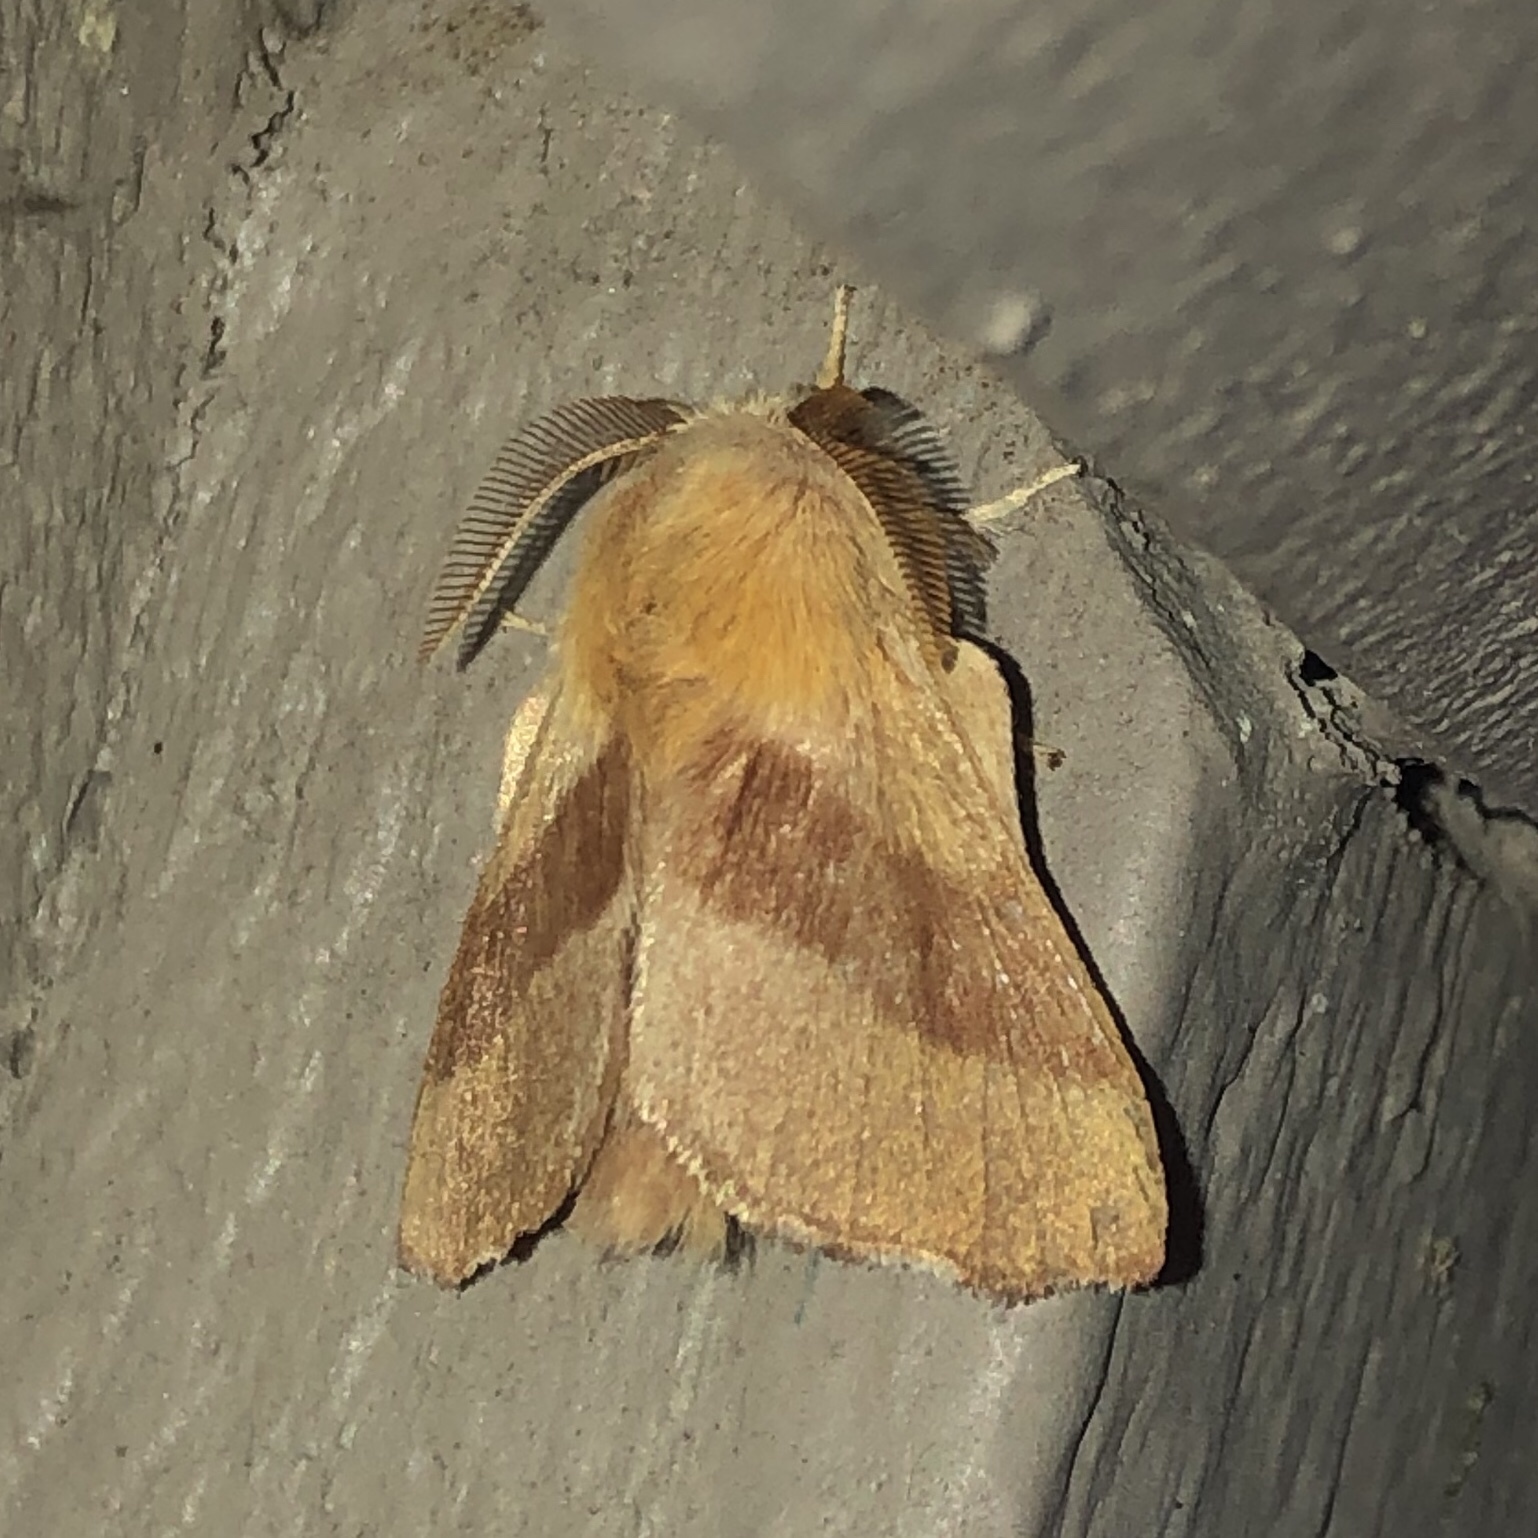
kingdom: Animalia
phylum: Arthropoda
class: Insecta
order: Lepidoptera
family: Lasiocampidae
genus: Malacosoma
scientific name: Malacosoma disstria
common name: Forest tent caterpillar
